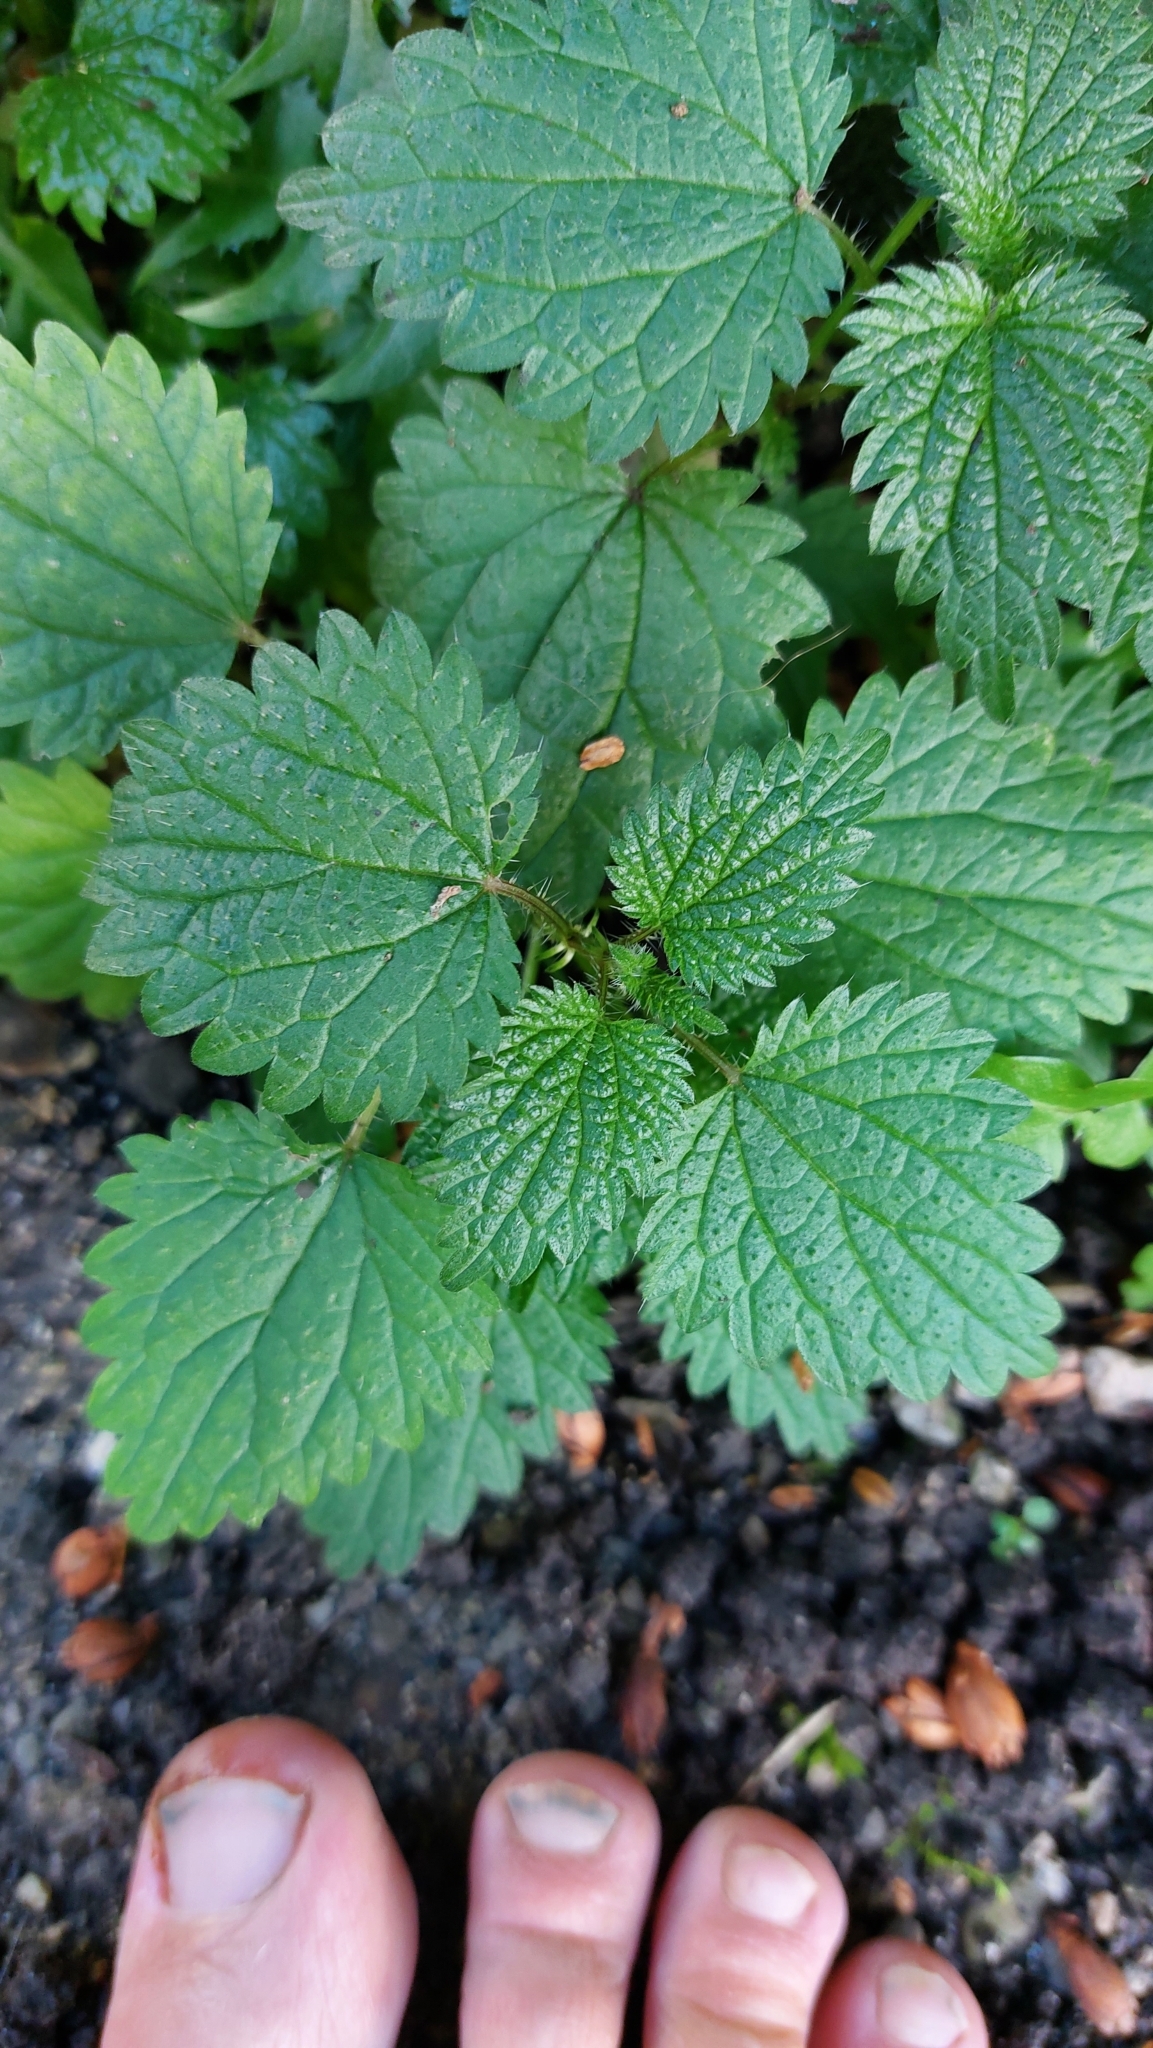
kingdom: Plantae
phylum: Tracheophyta
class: Magnoliopsida
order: Rosales
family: Urticaceae
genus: Urtica
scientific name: Urtica dioica
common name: Common nettle
